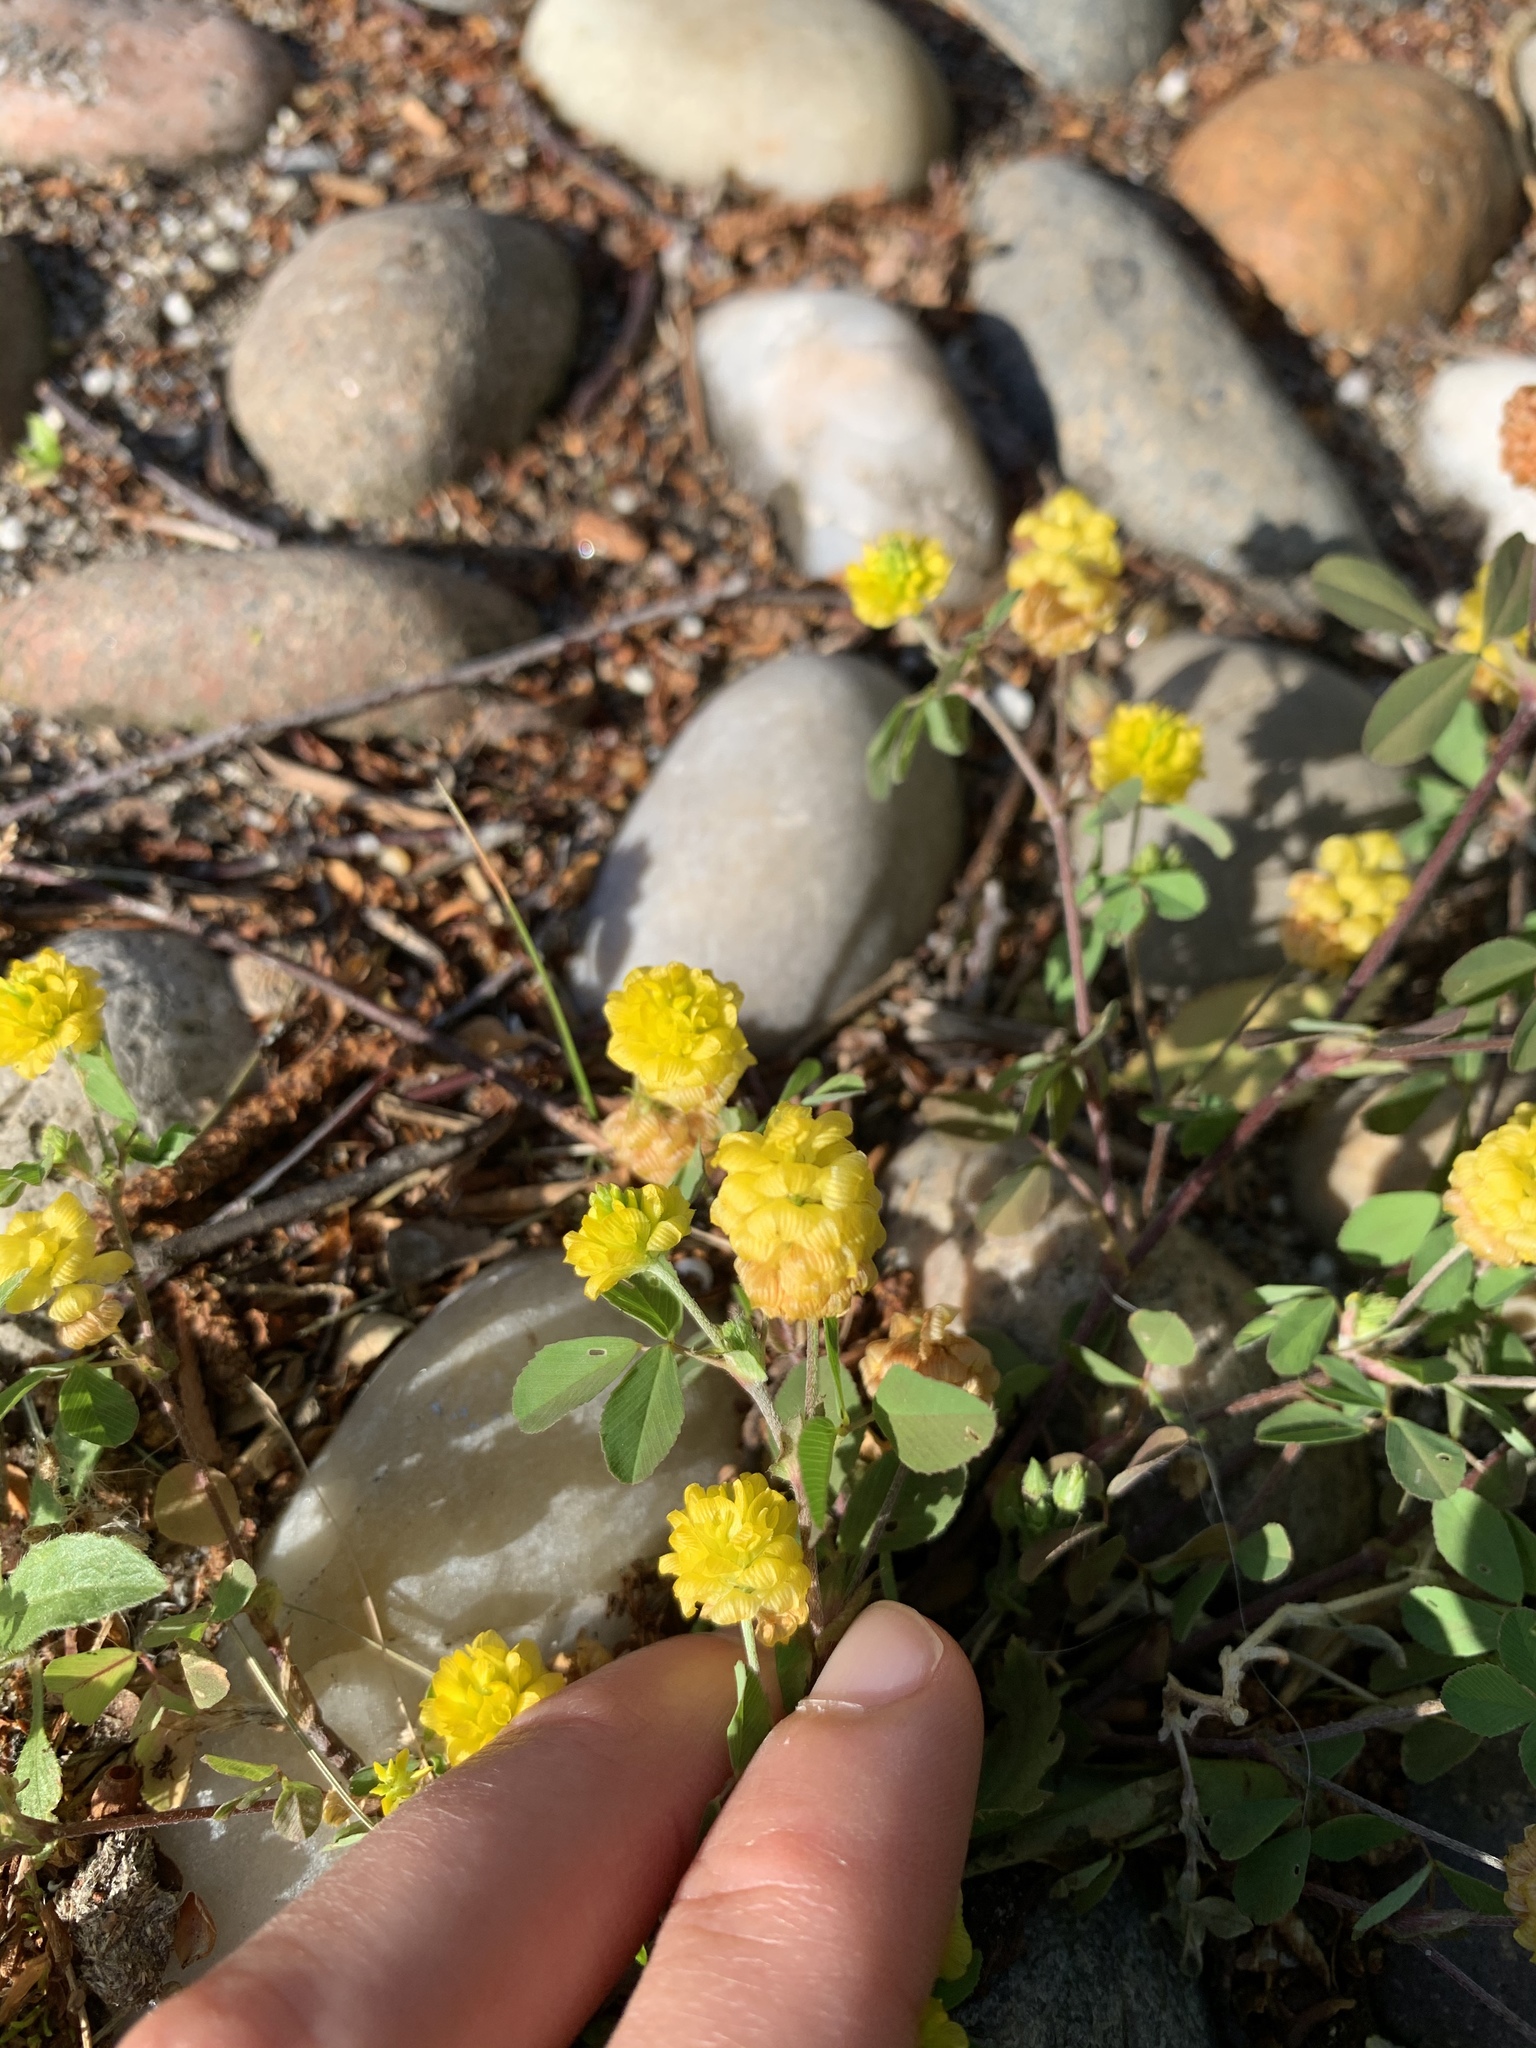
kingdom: Plantae
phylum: Tracheophyta
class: Magnoliopsida
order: Fabales
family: Fabaceae
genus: Trifolium
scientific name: Trifolium campestre
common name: Field clover
